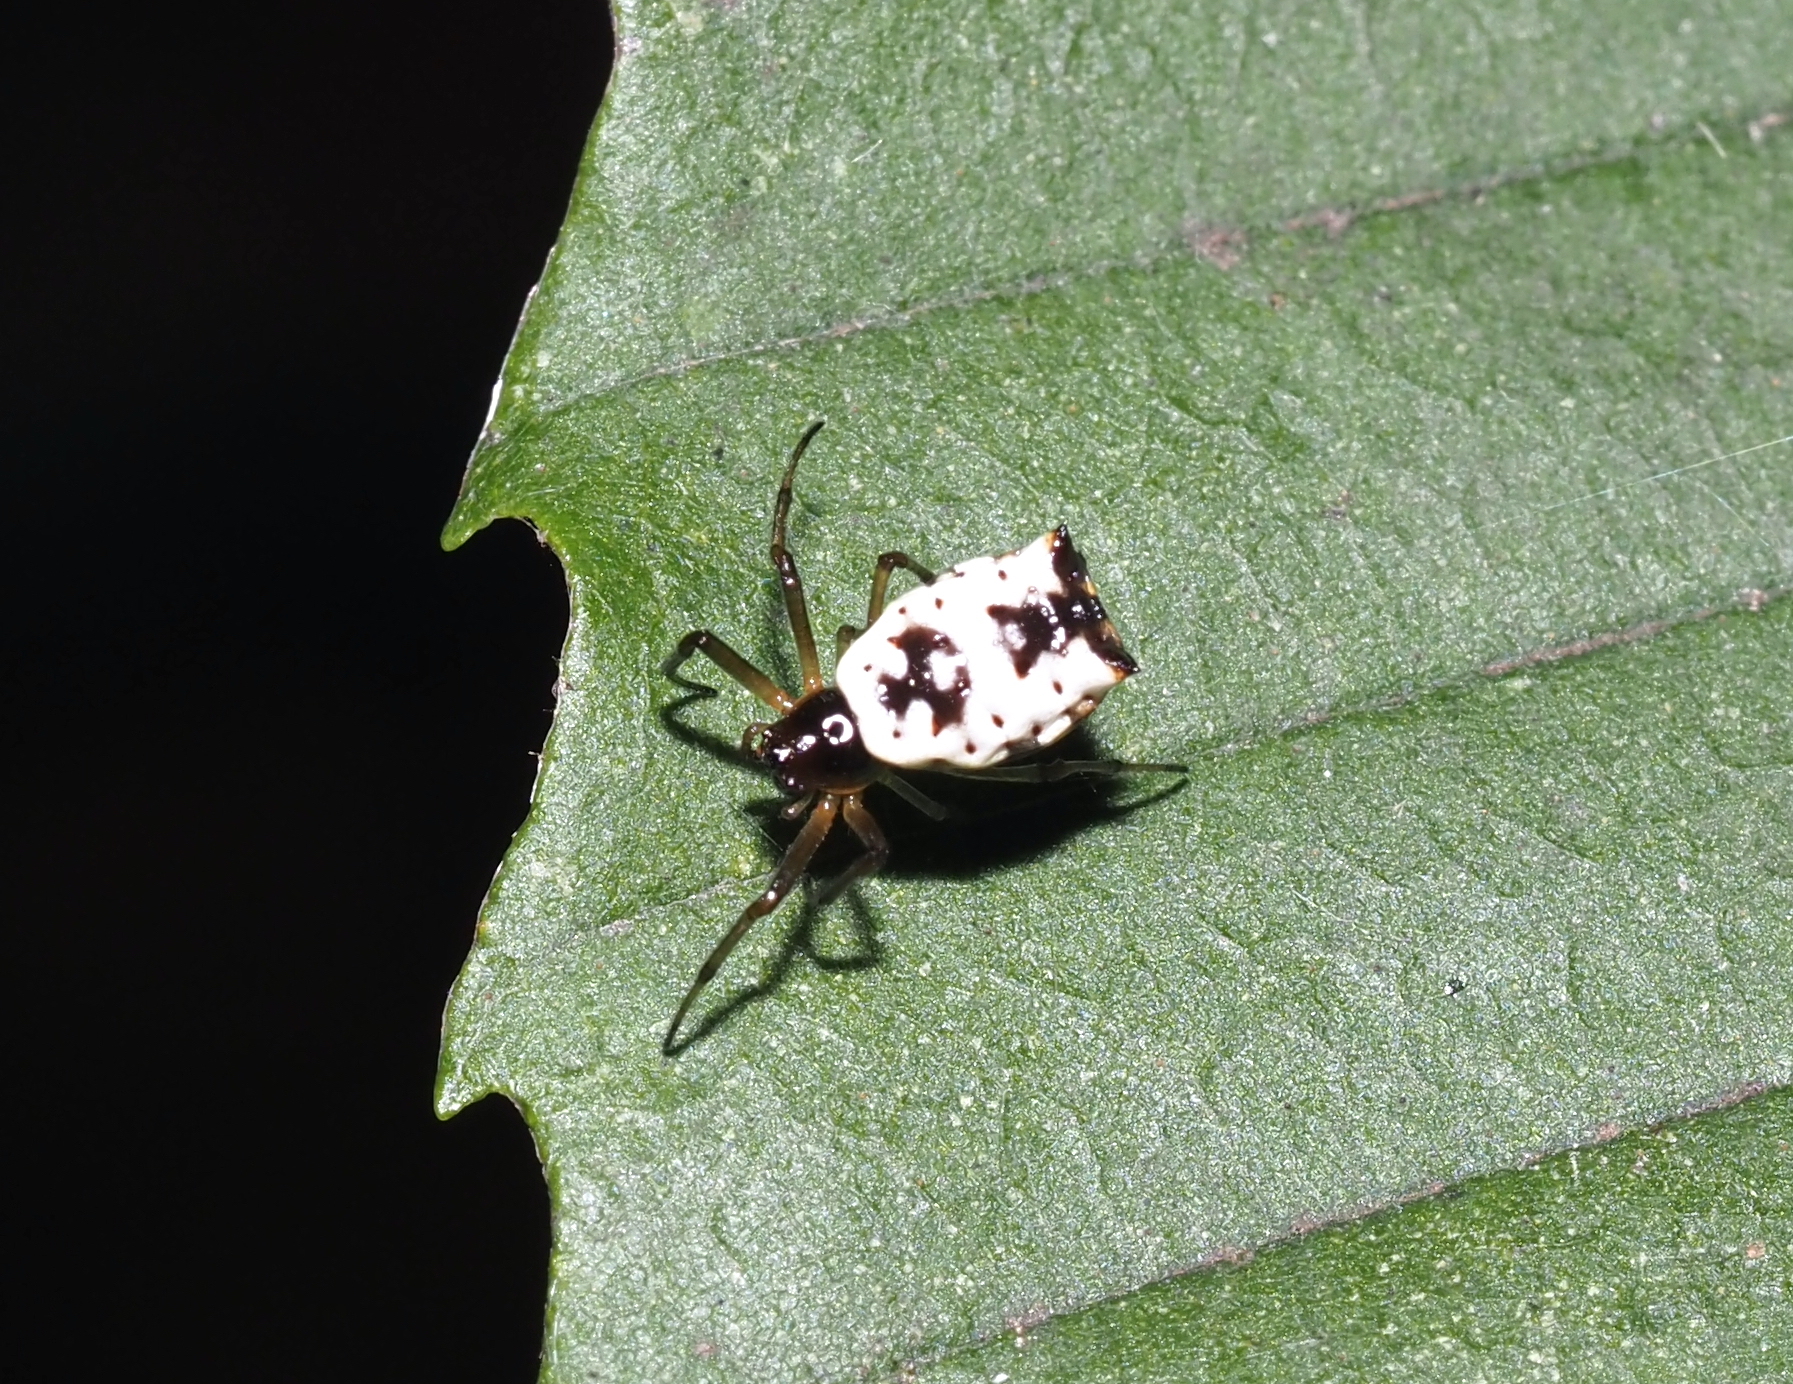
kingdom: Animalia
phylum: Arthropoda
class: Arachnida
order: Araneae
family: Araneidae
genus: Micrathena
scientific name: Micrathena mitrata
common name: Orb weavers
